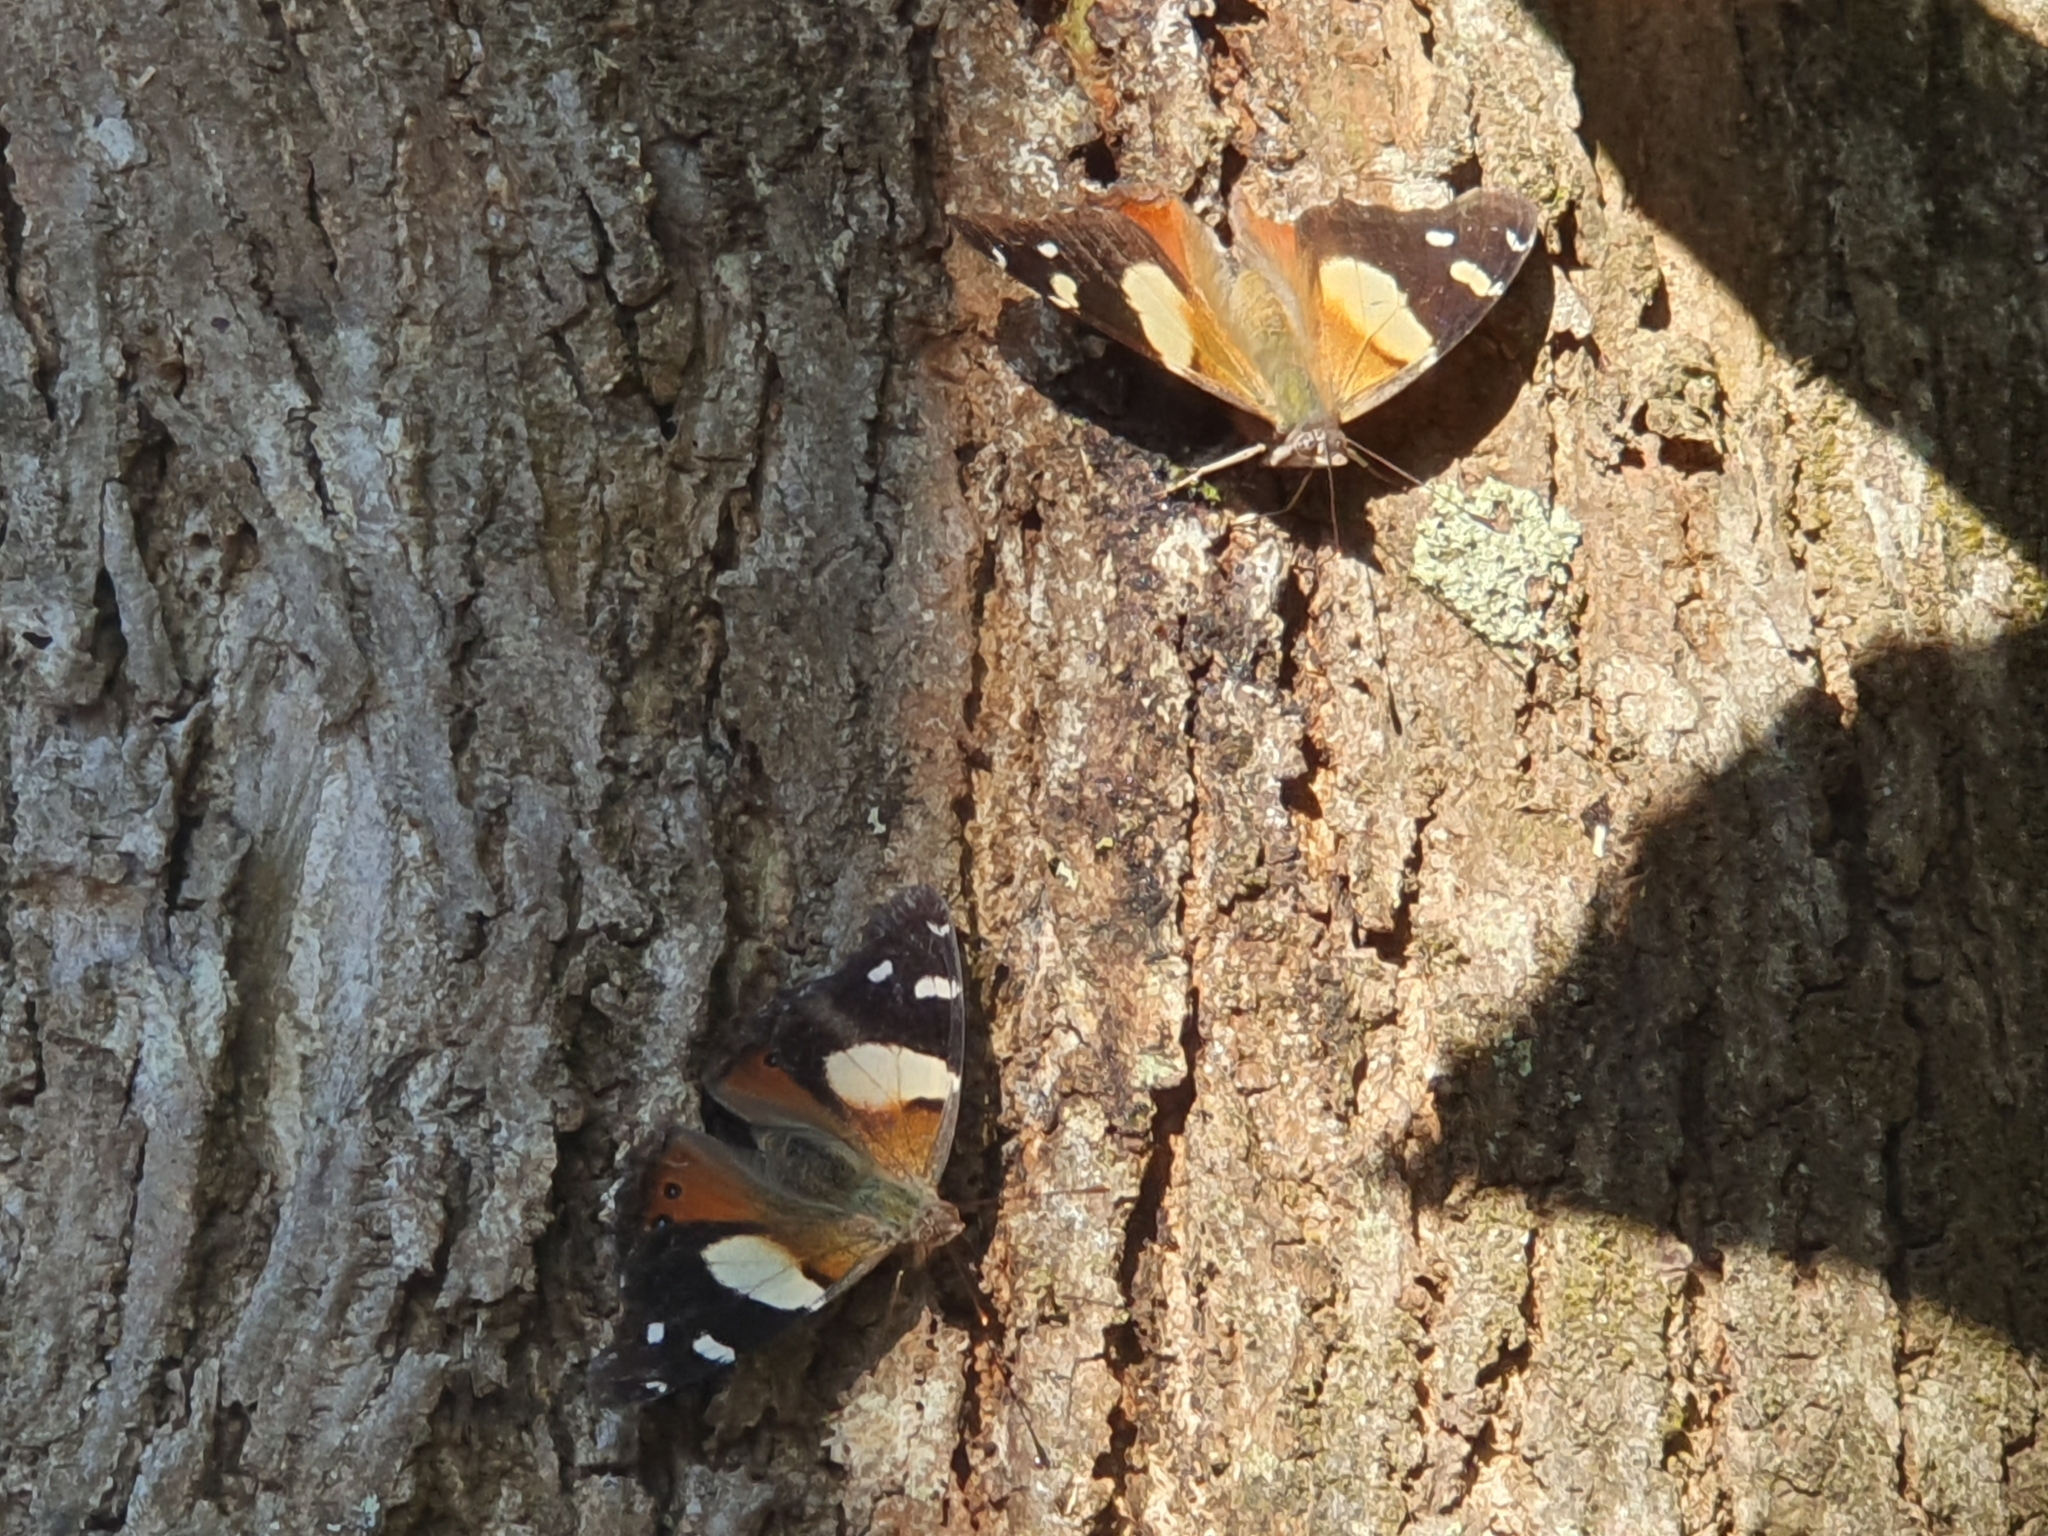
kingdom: Animalia
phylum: Arthropoda
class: Insecta
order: Lepidoptera
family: Nymphalidae
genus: Vanessa
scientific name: Vanessa itea
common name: Yellow admiral
